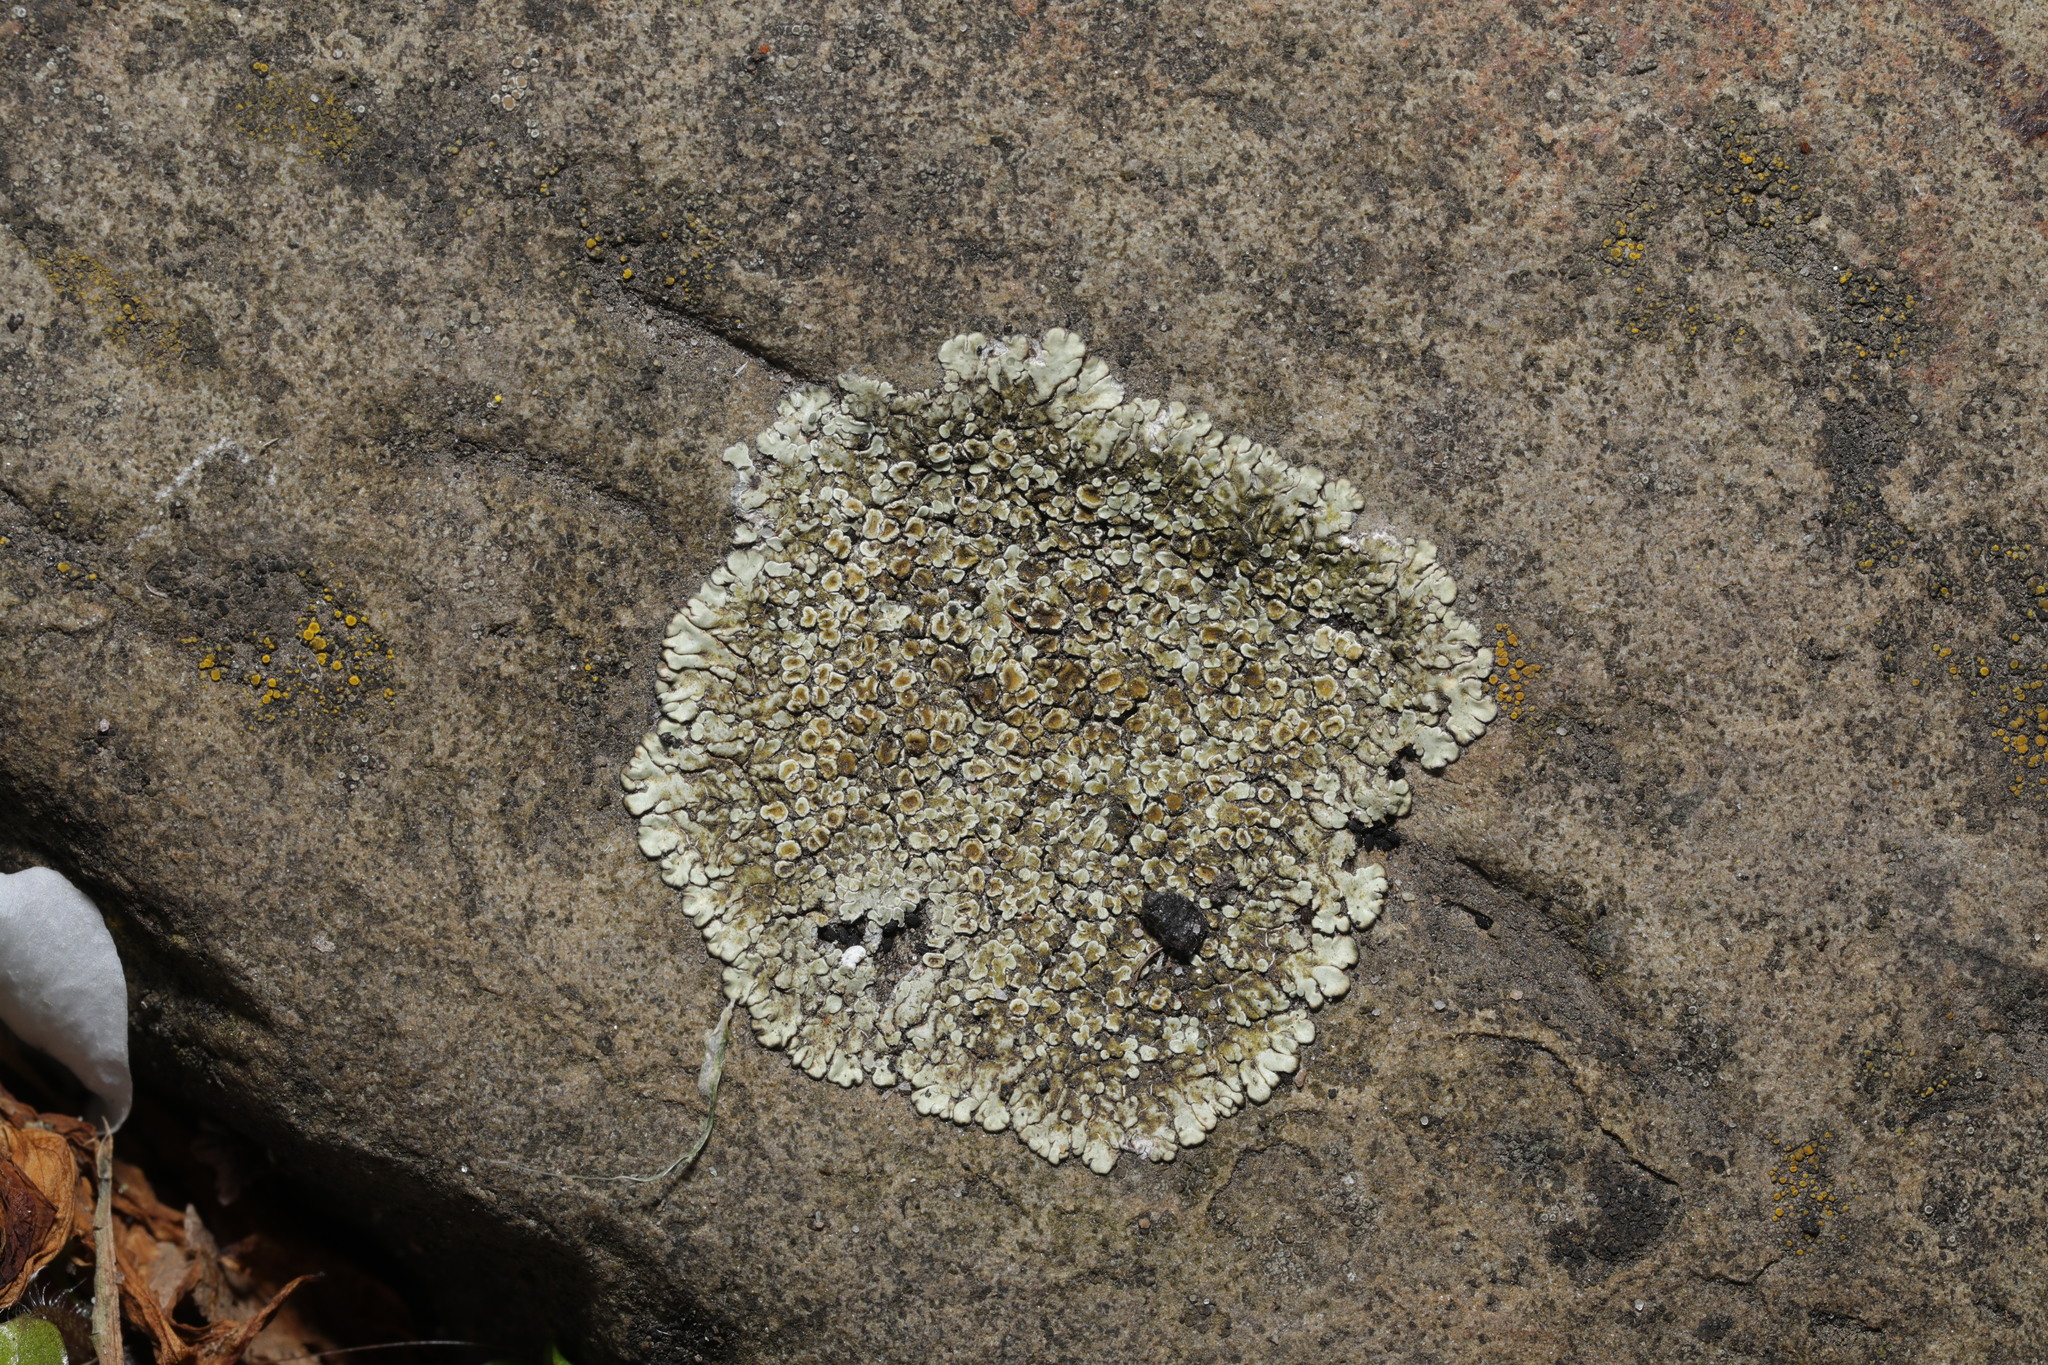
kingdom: Fungi
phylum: Ascomycota
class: Lecanoromycetes
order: Lecanorales
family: Lecanoraceae
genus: Protoparmeliopsis
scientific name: Protoparmeliopsis muralis
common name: Stonewall rim lichen
